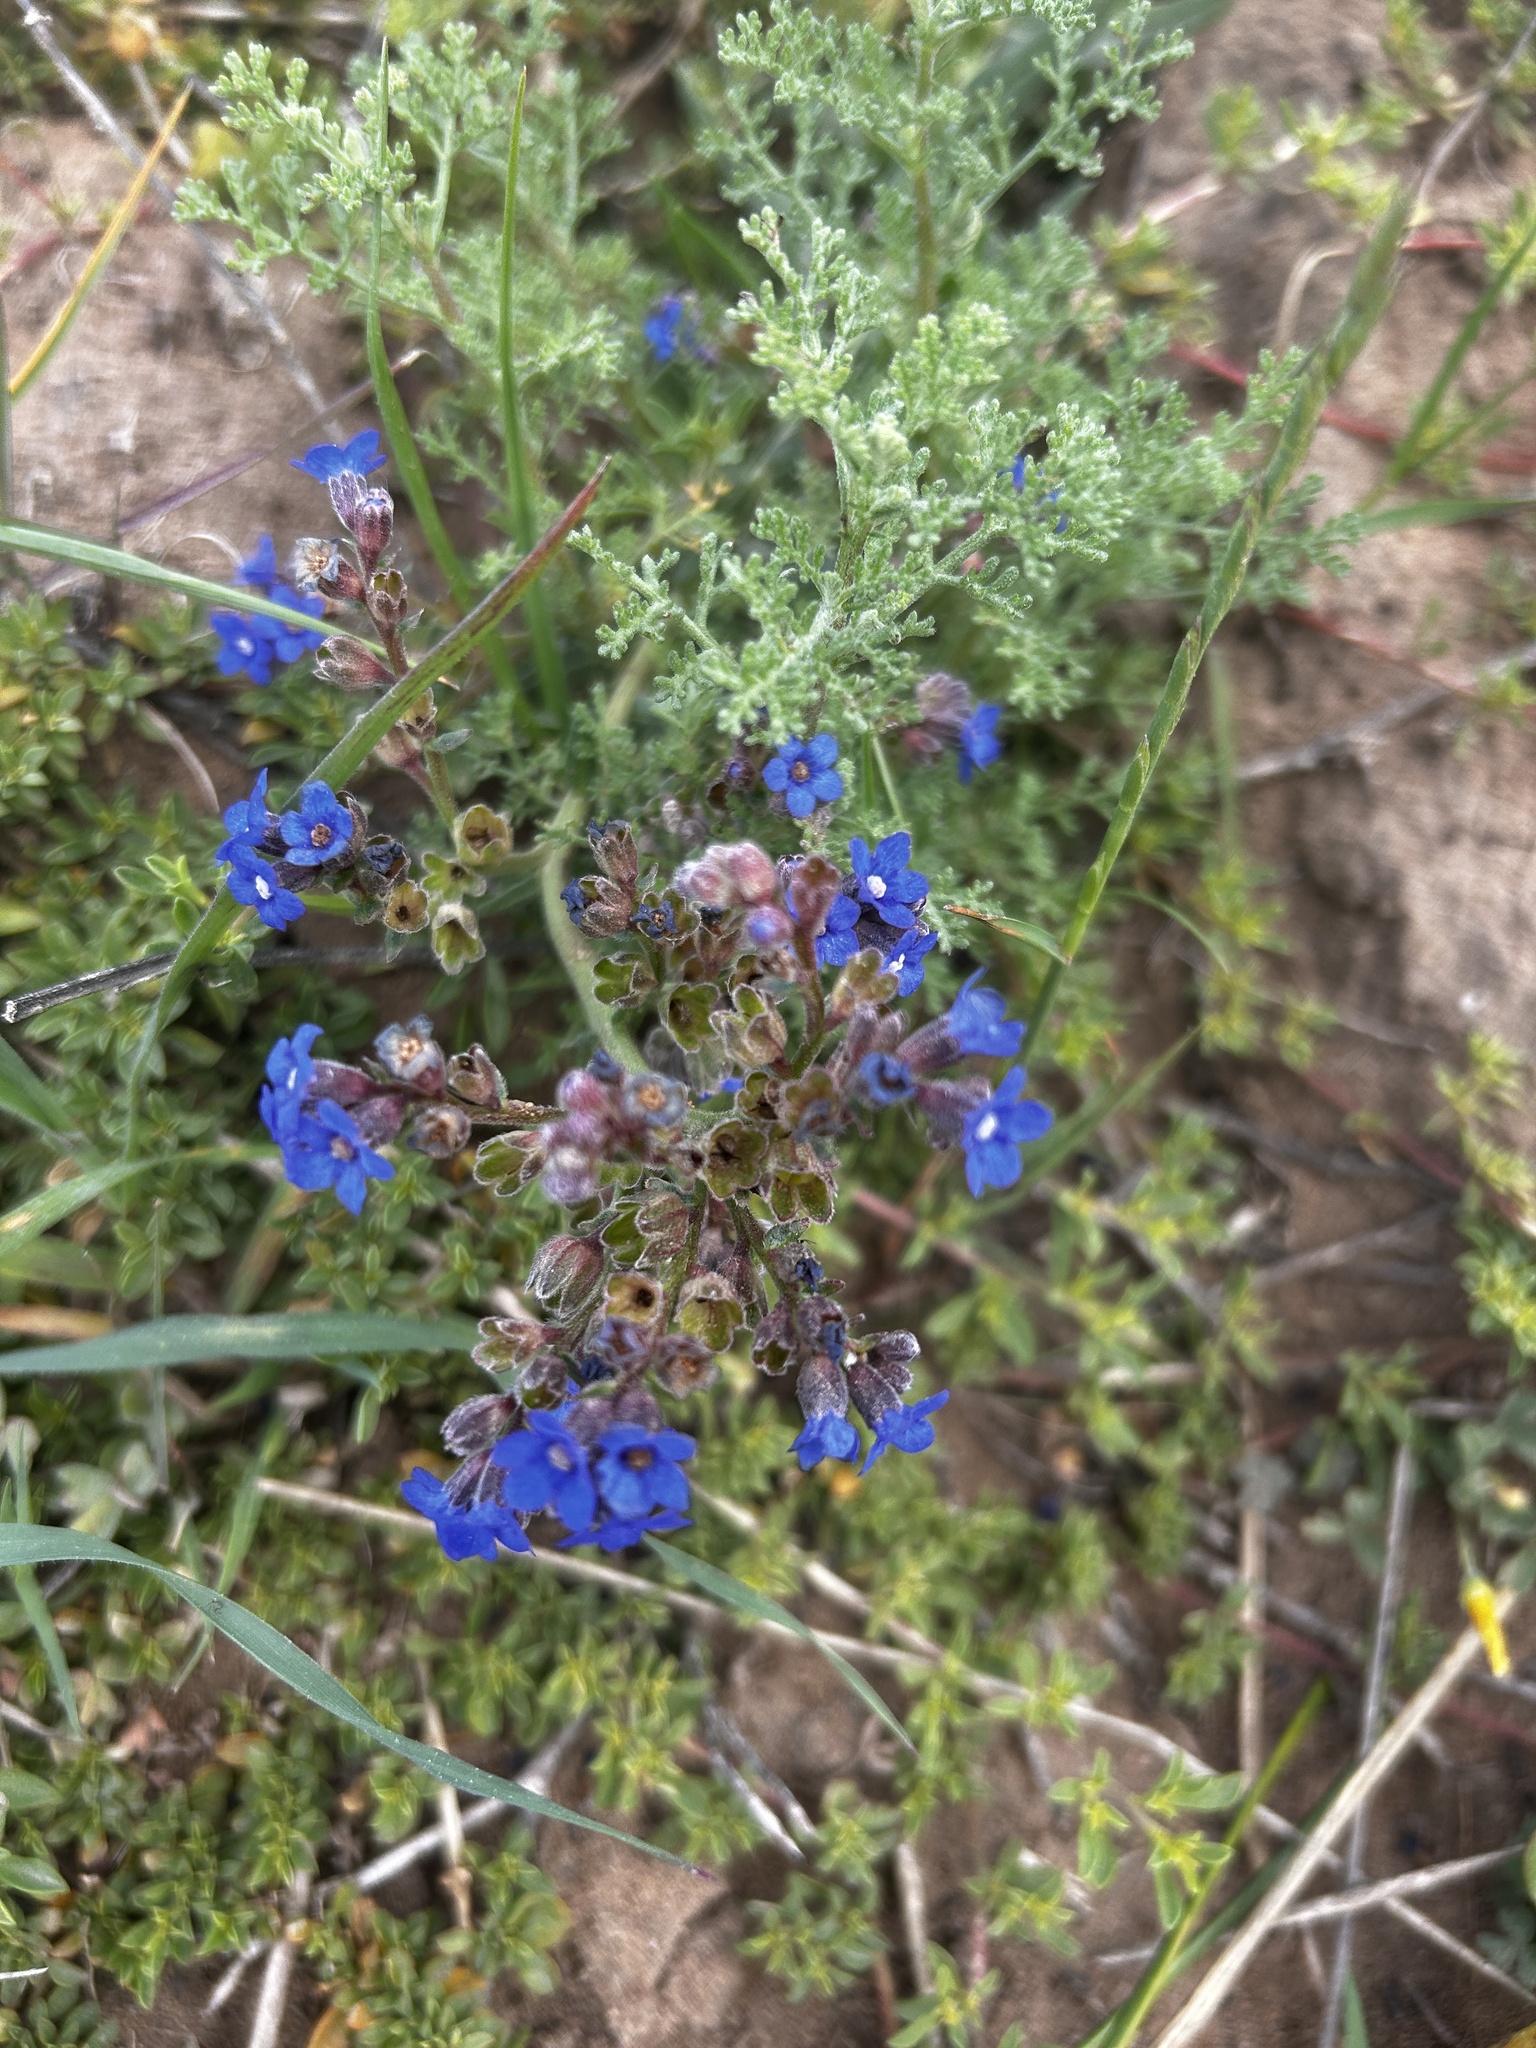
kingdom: Plantae
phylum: Tracheophyta
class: Magnoliopsida
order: Boraginales
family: Boraginaceae
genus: Anchusa
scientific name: Anchusa capensis
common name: Cape bugloss
